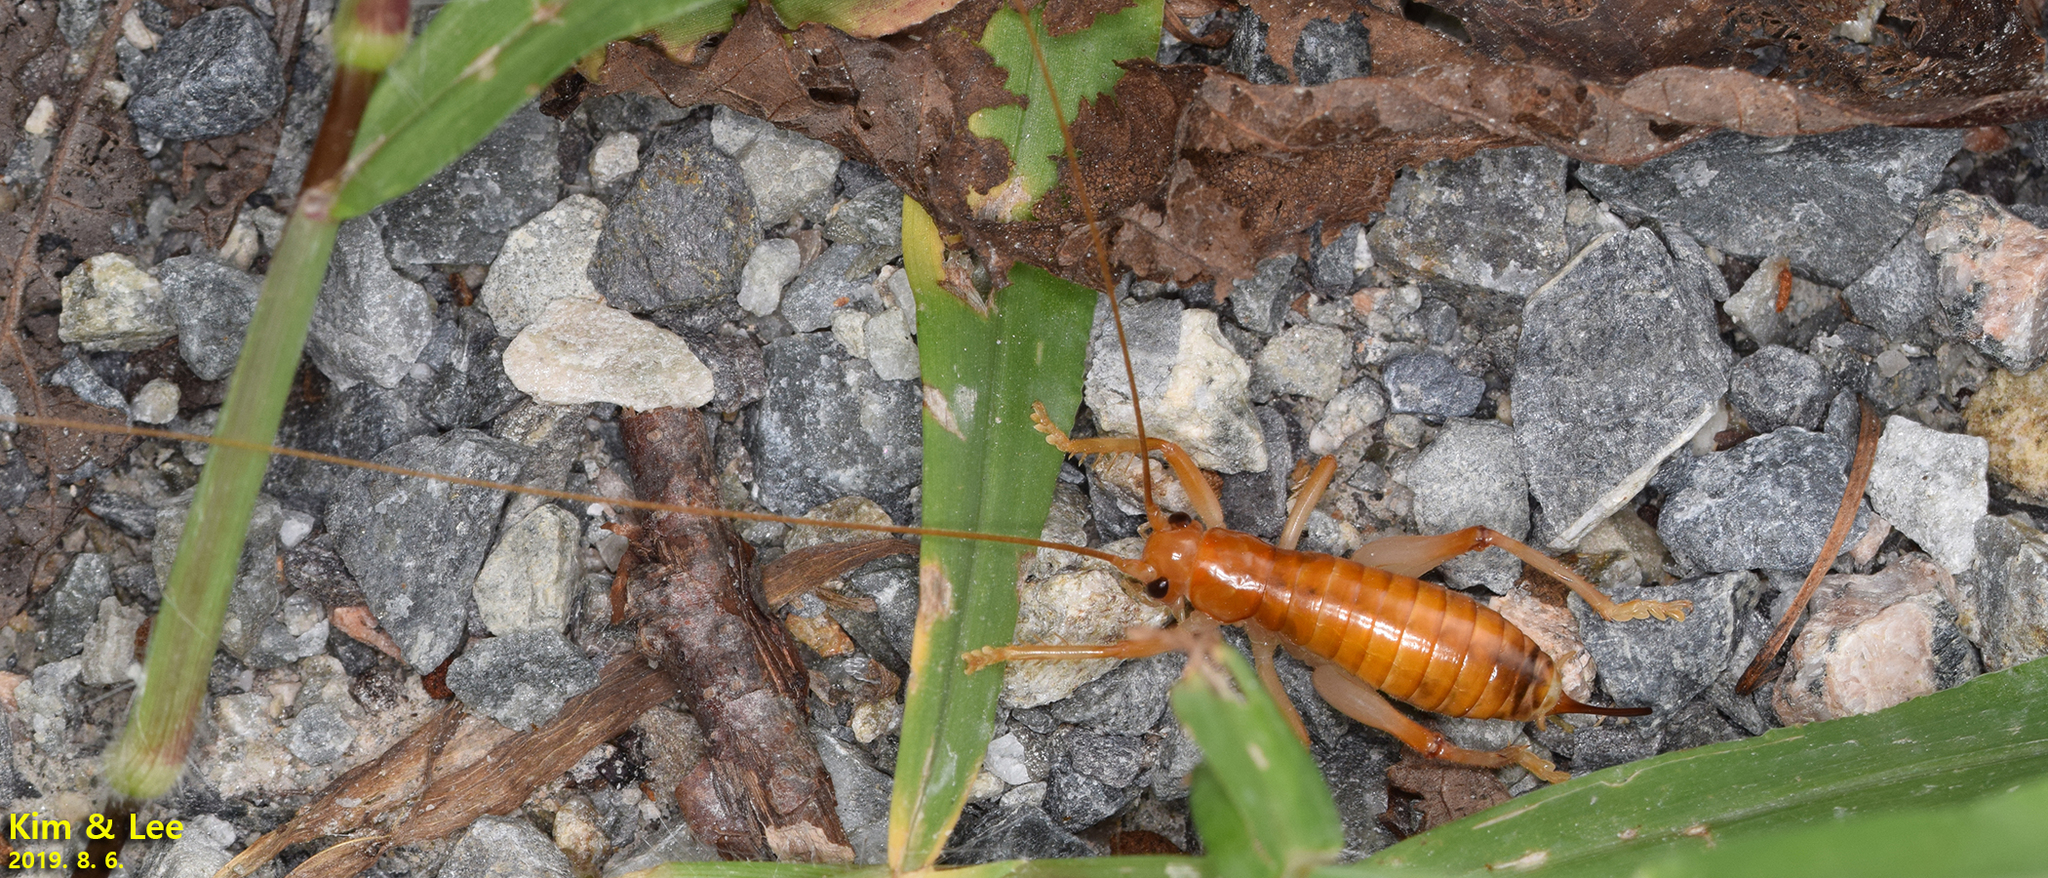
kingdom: Animalia
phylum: Arthropoda
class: Insecta
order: Orthoptera
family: Gryllacrididae
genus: Nippancistroger
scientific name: Nippancistroger koreanus
